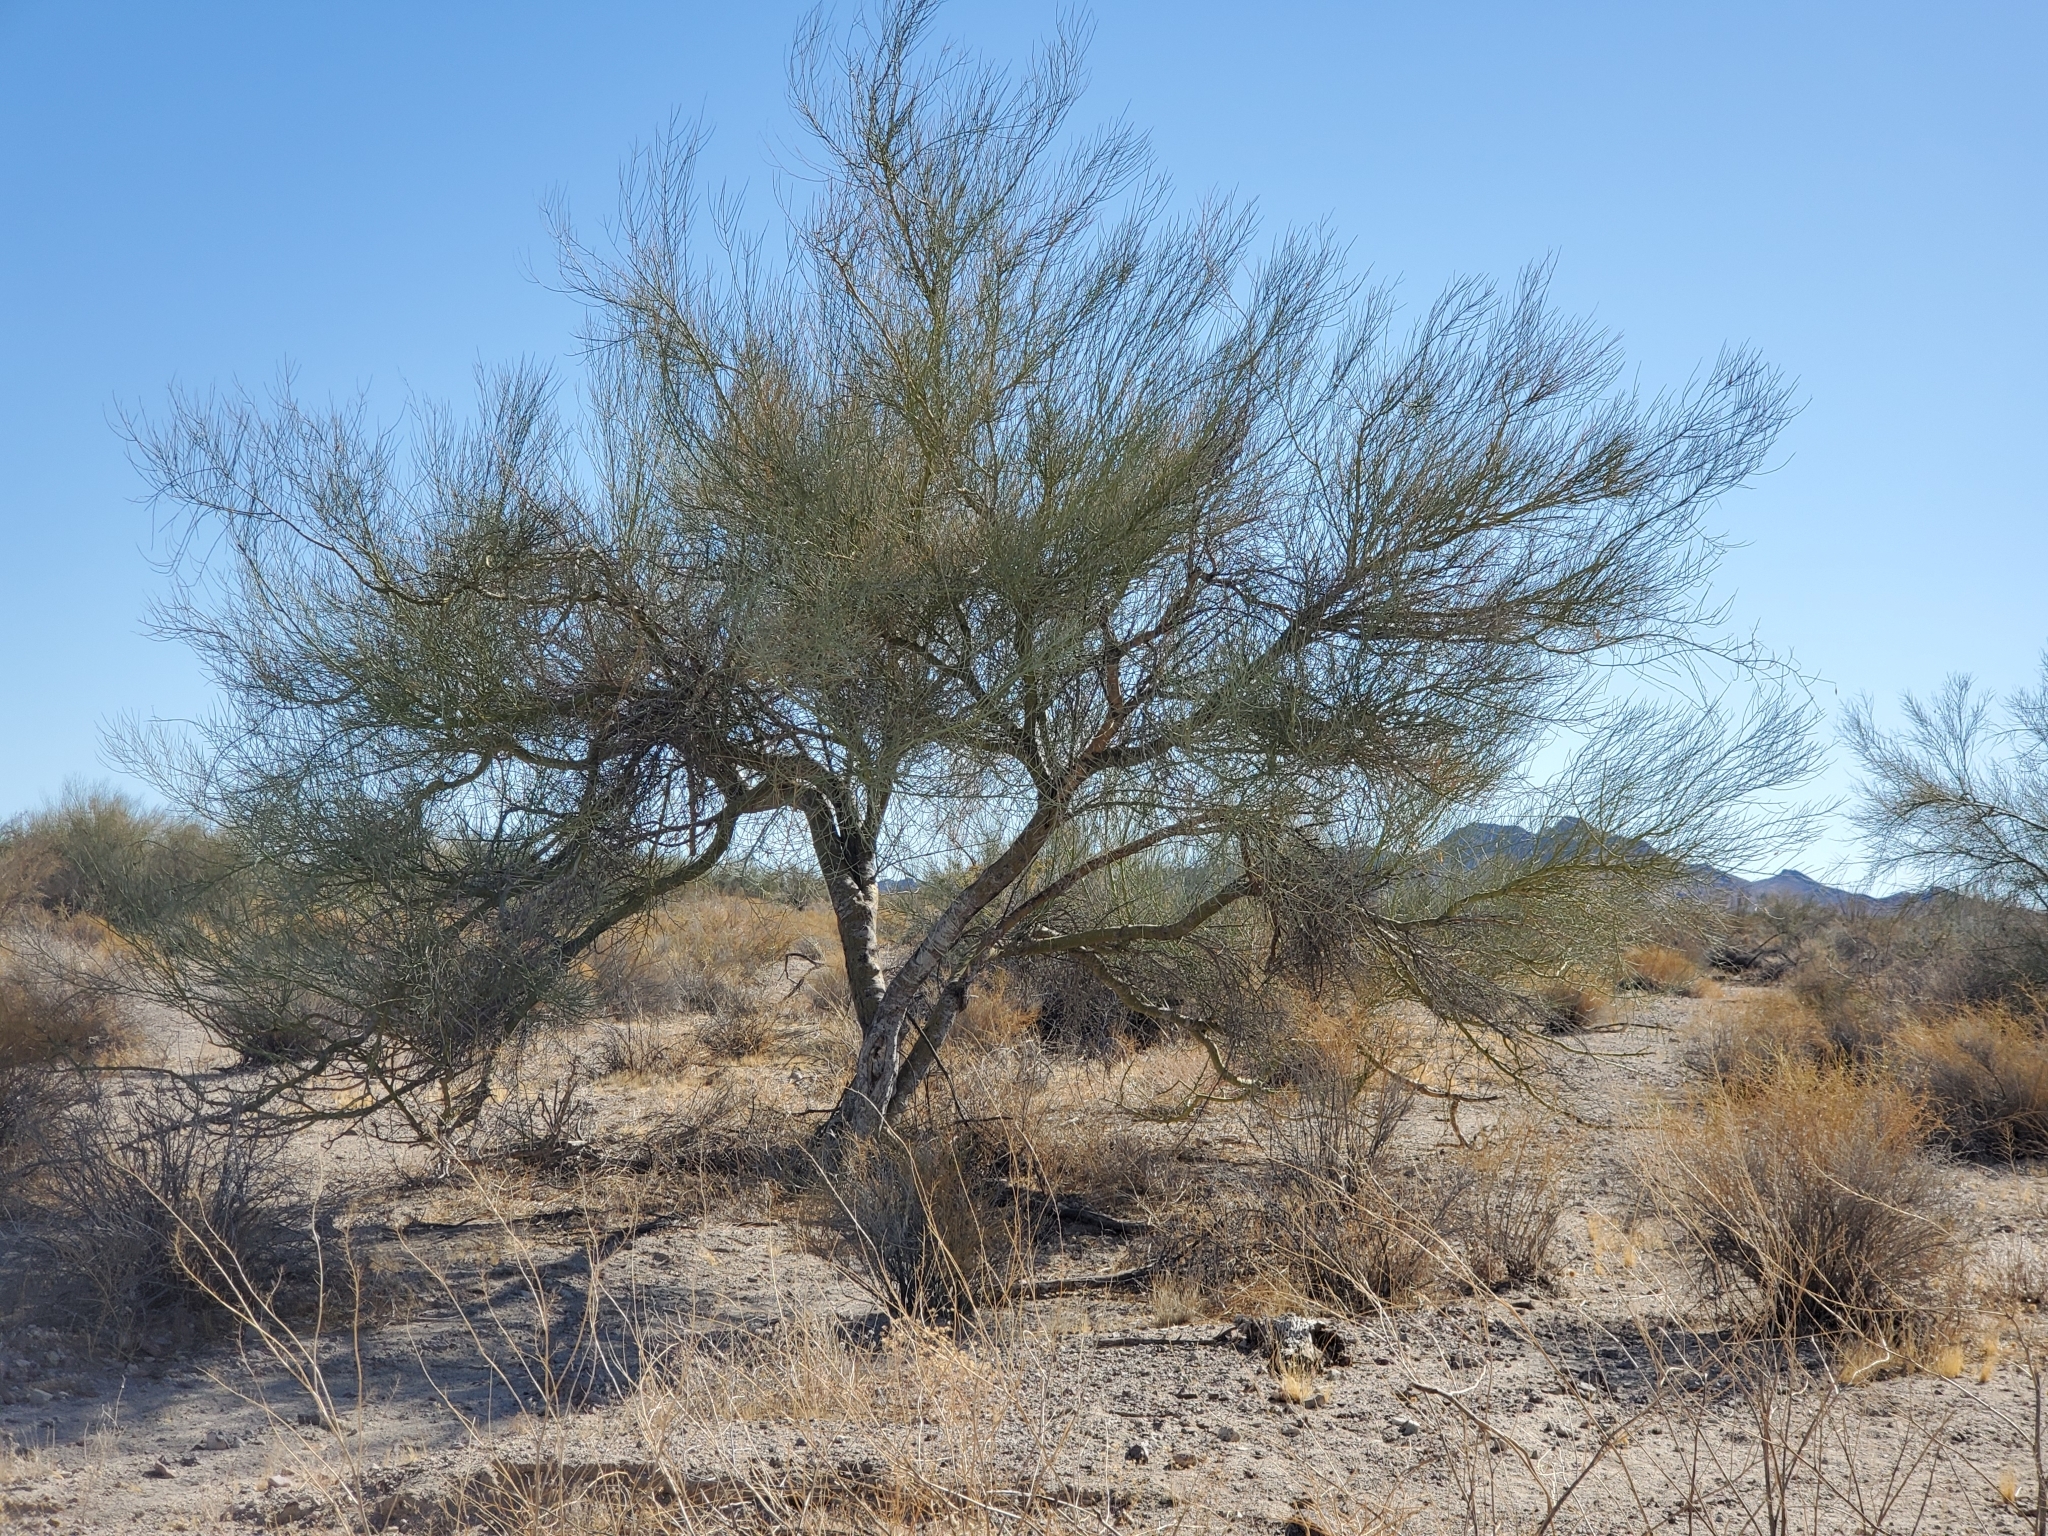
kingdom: Plantae
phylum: Tracheophyta
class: Magnoliopsida
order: Fabales
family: Fabaceae
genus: Parkinsonia
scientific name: Parkinsonia florida
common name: Blue paloverde
